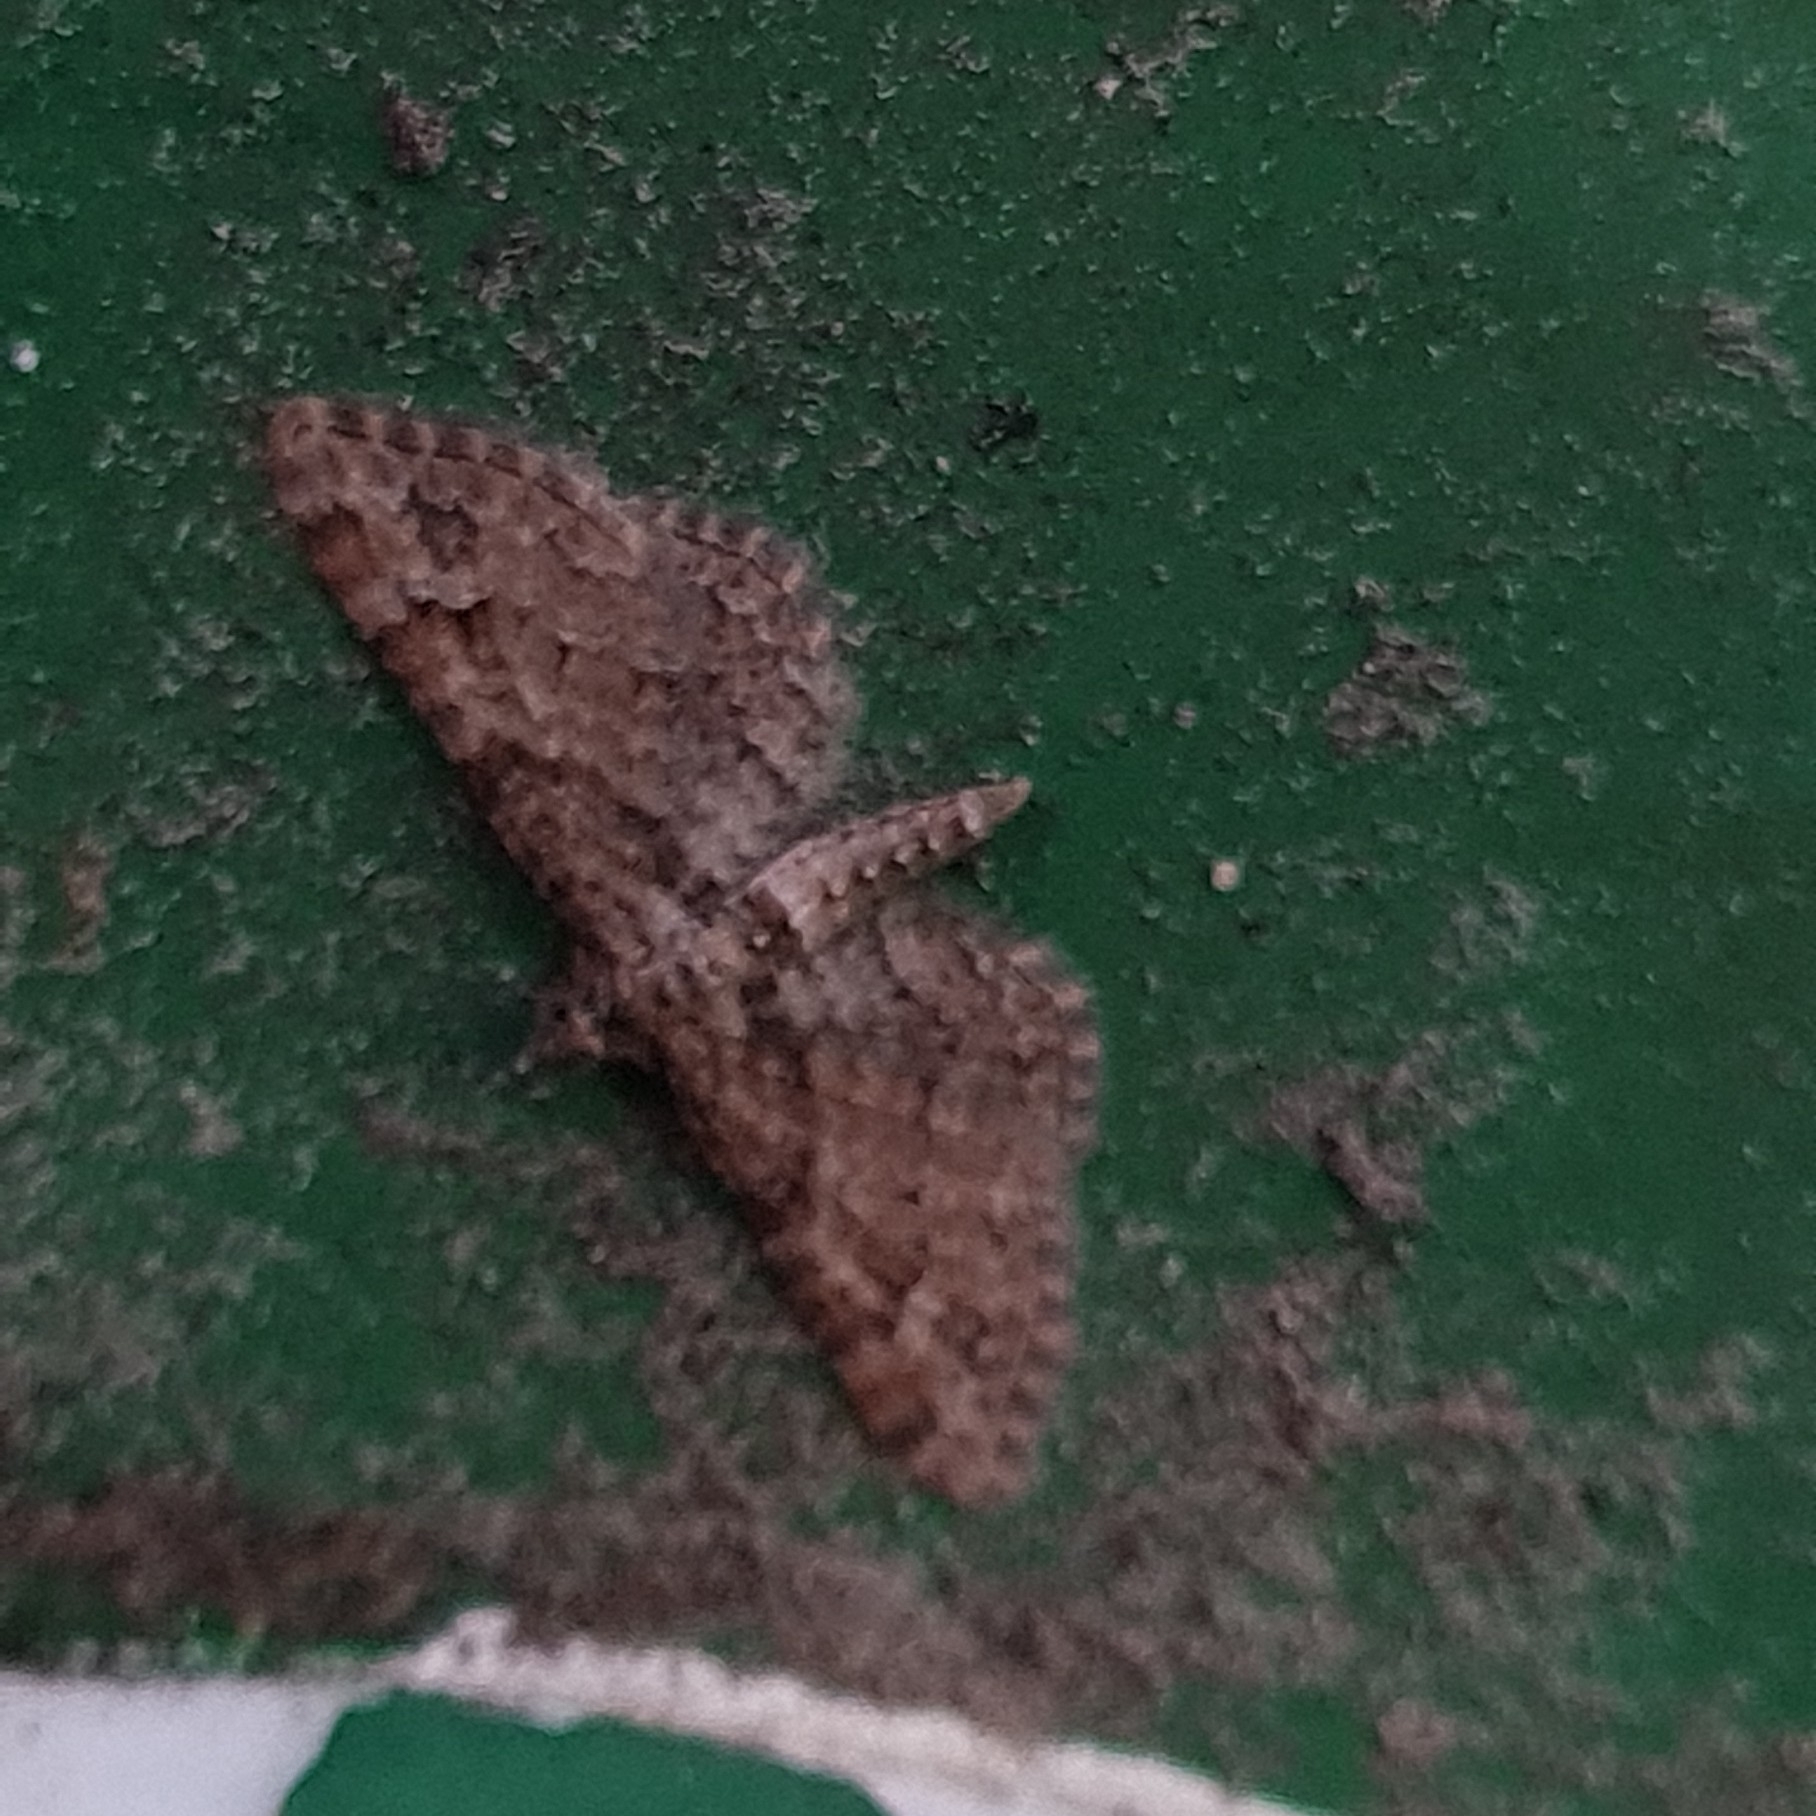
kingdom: Animalia
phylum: Arthropoda
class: Insecta
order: Lepidoptera
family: Geometridae
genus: Gymnoscelis
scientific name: Gymnoscelis rufifasciata
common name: Double-striped pug
